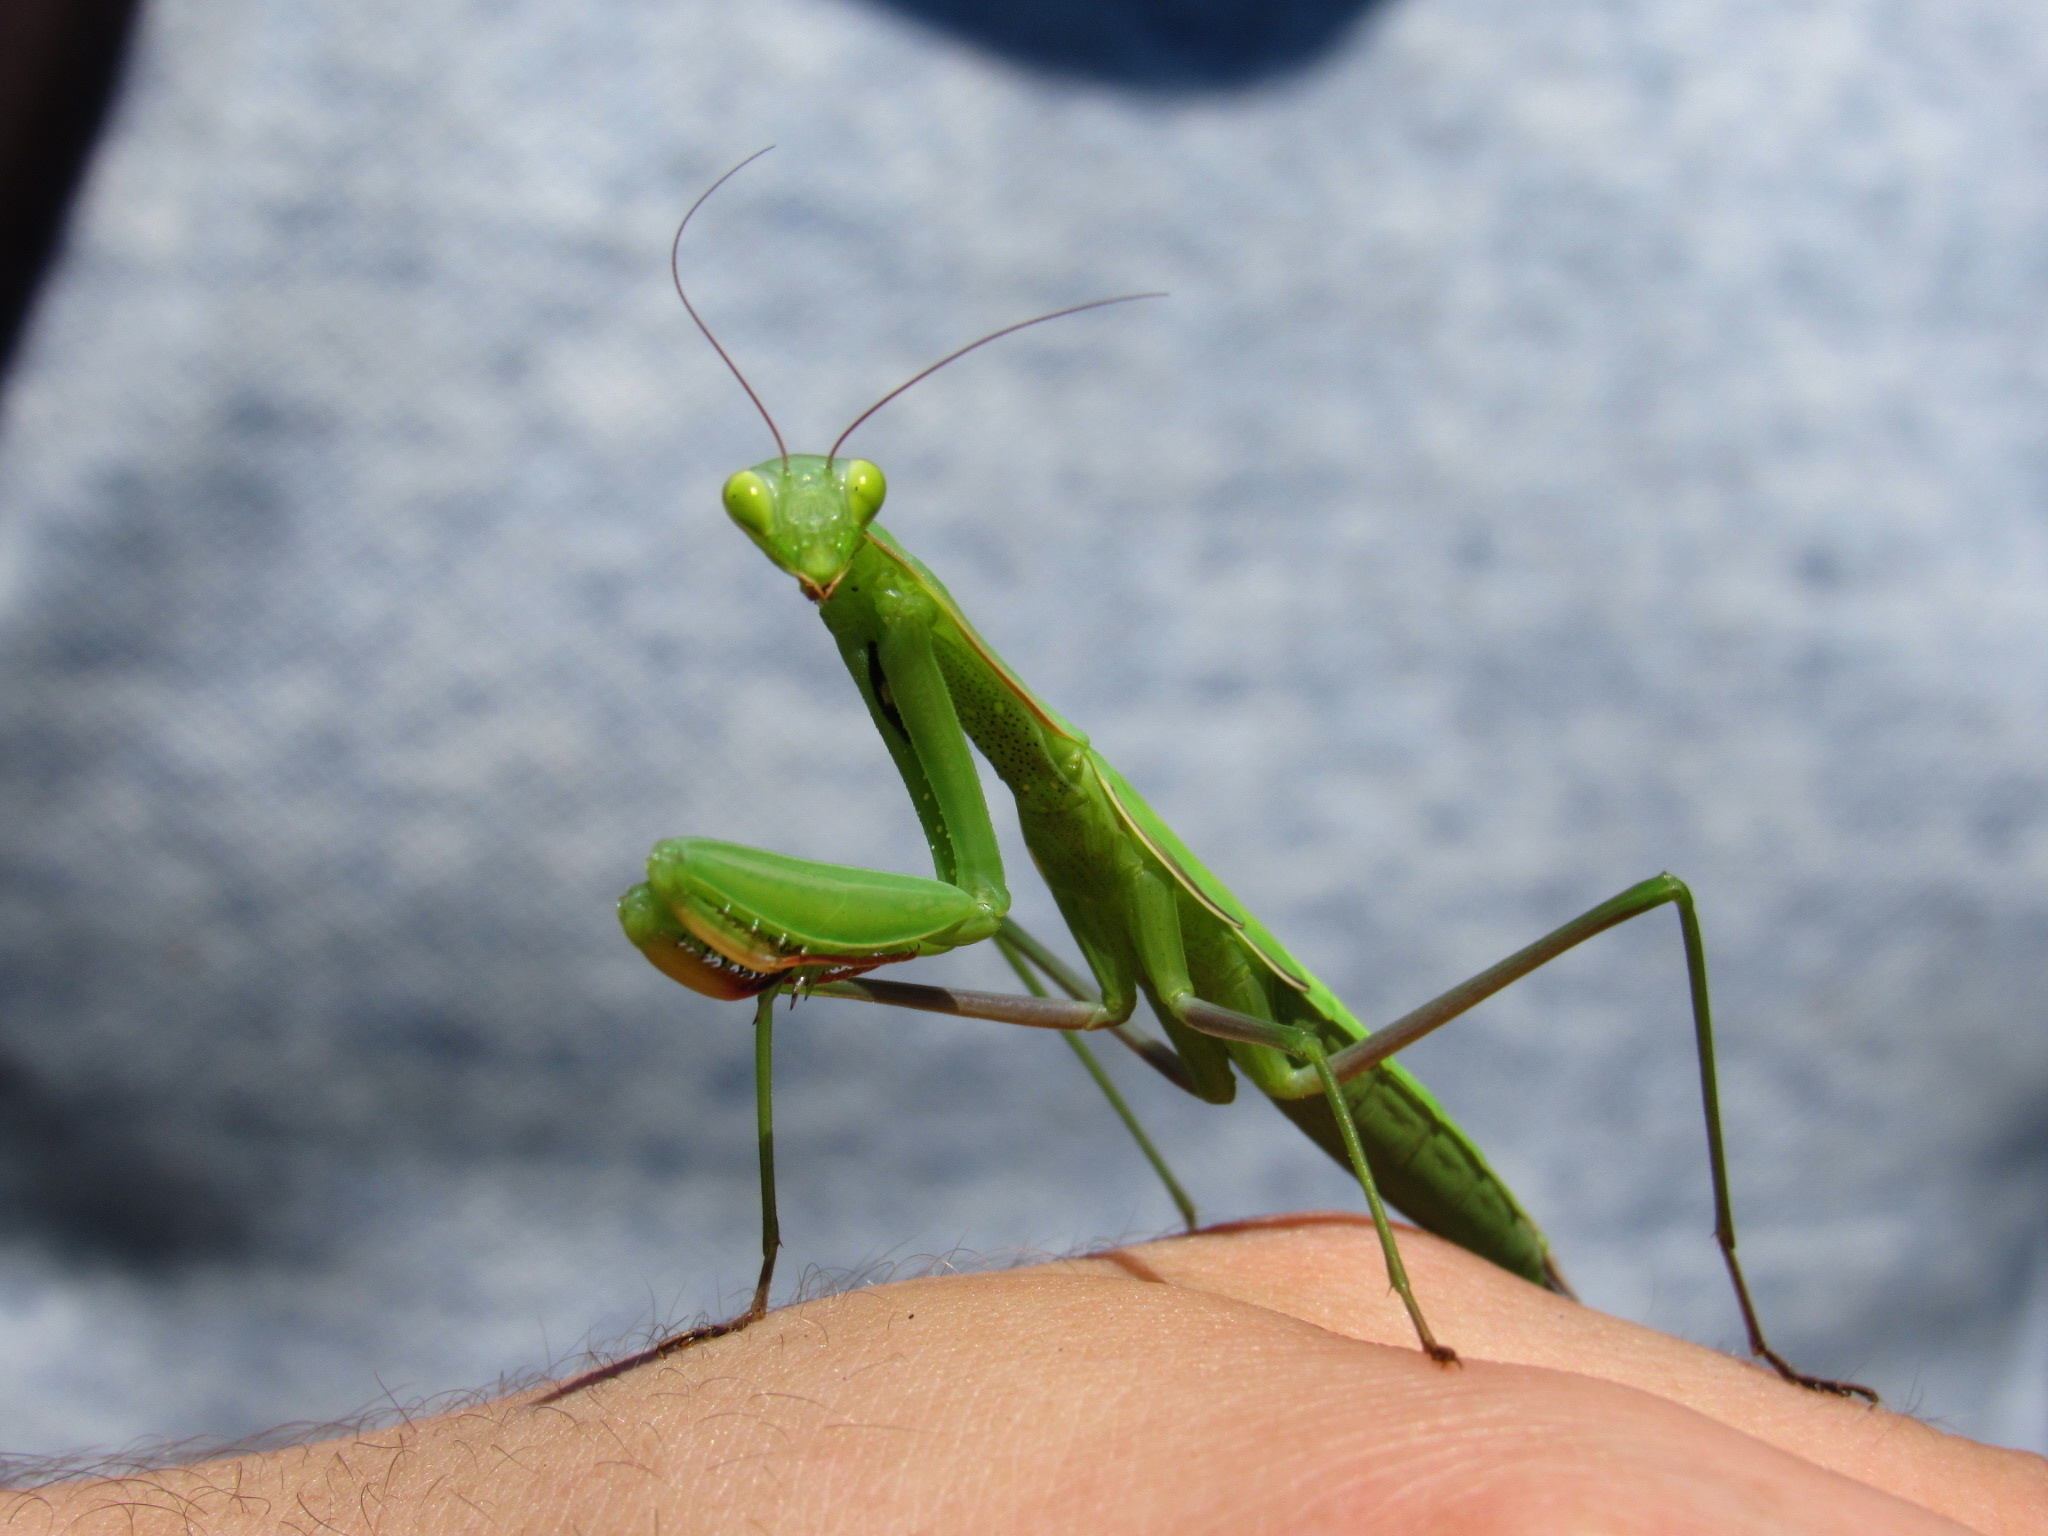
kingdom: Animalia
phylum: Arthropoda
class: Insecta
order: Mantodea
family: Mantidae
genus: Mantis
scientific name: Mantis religiosa
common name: Praying mantis
